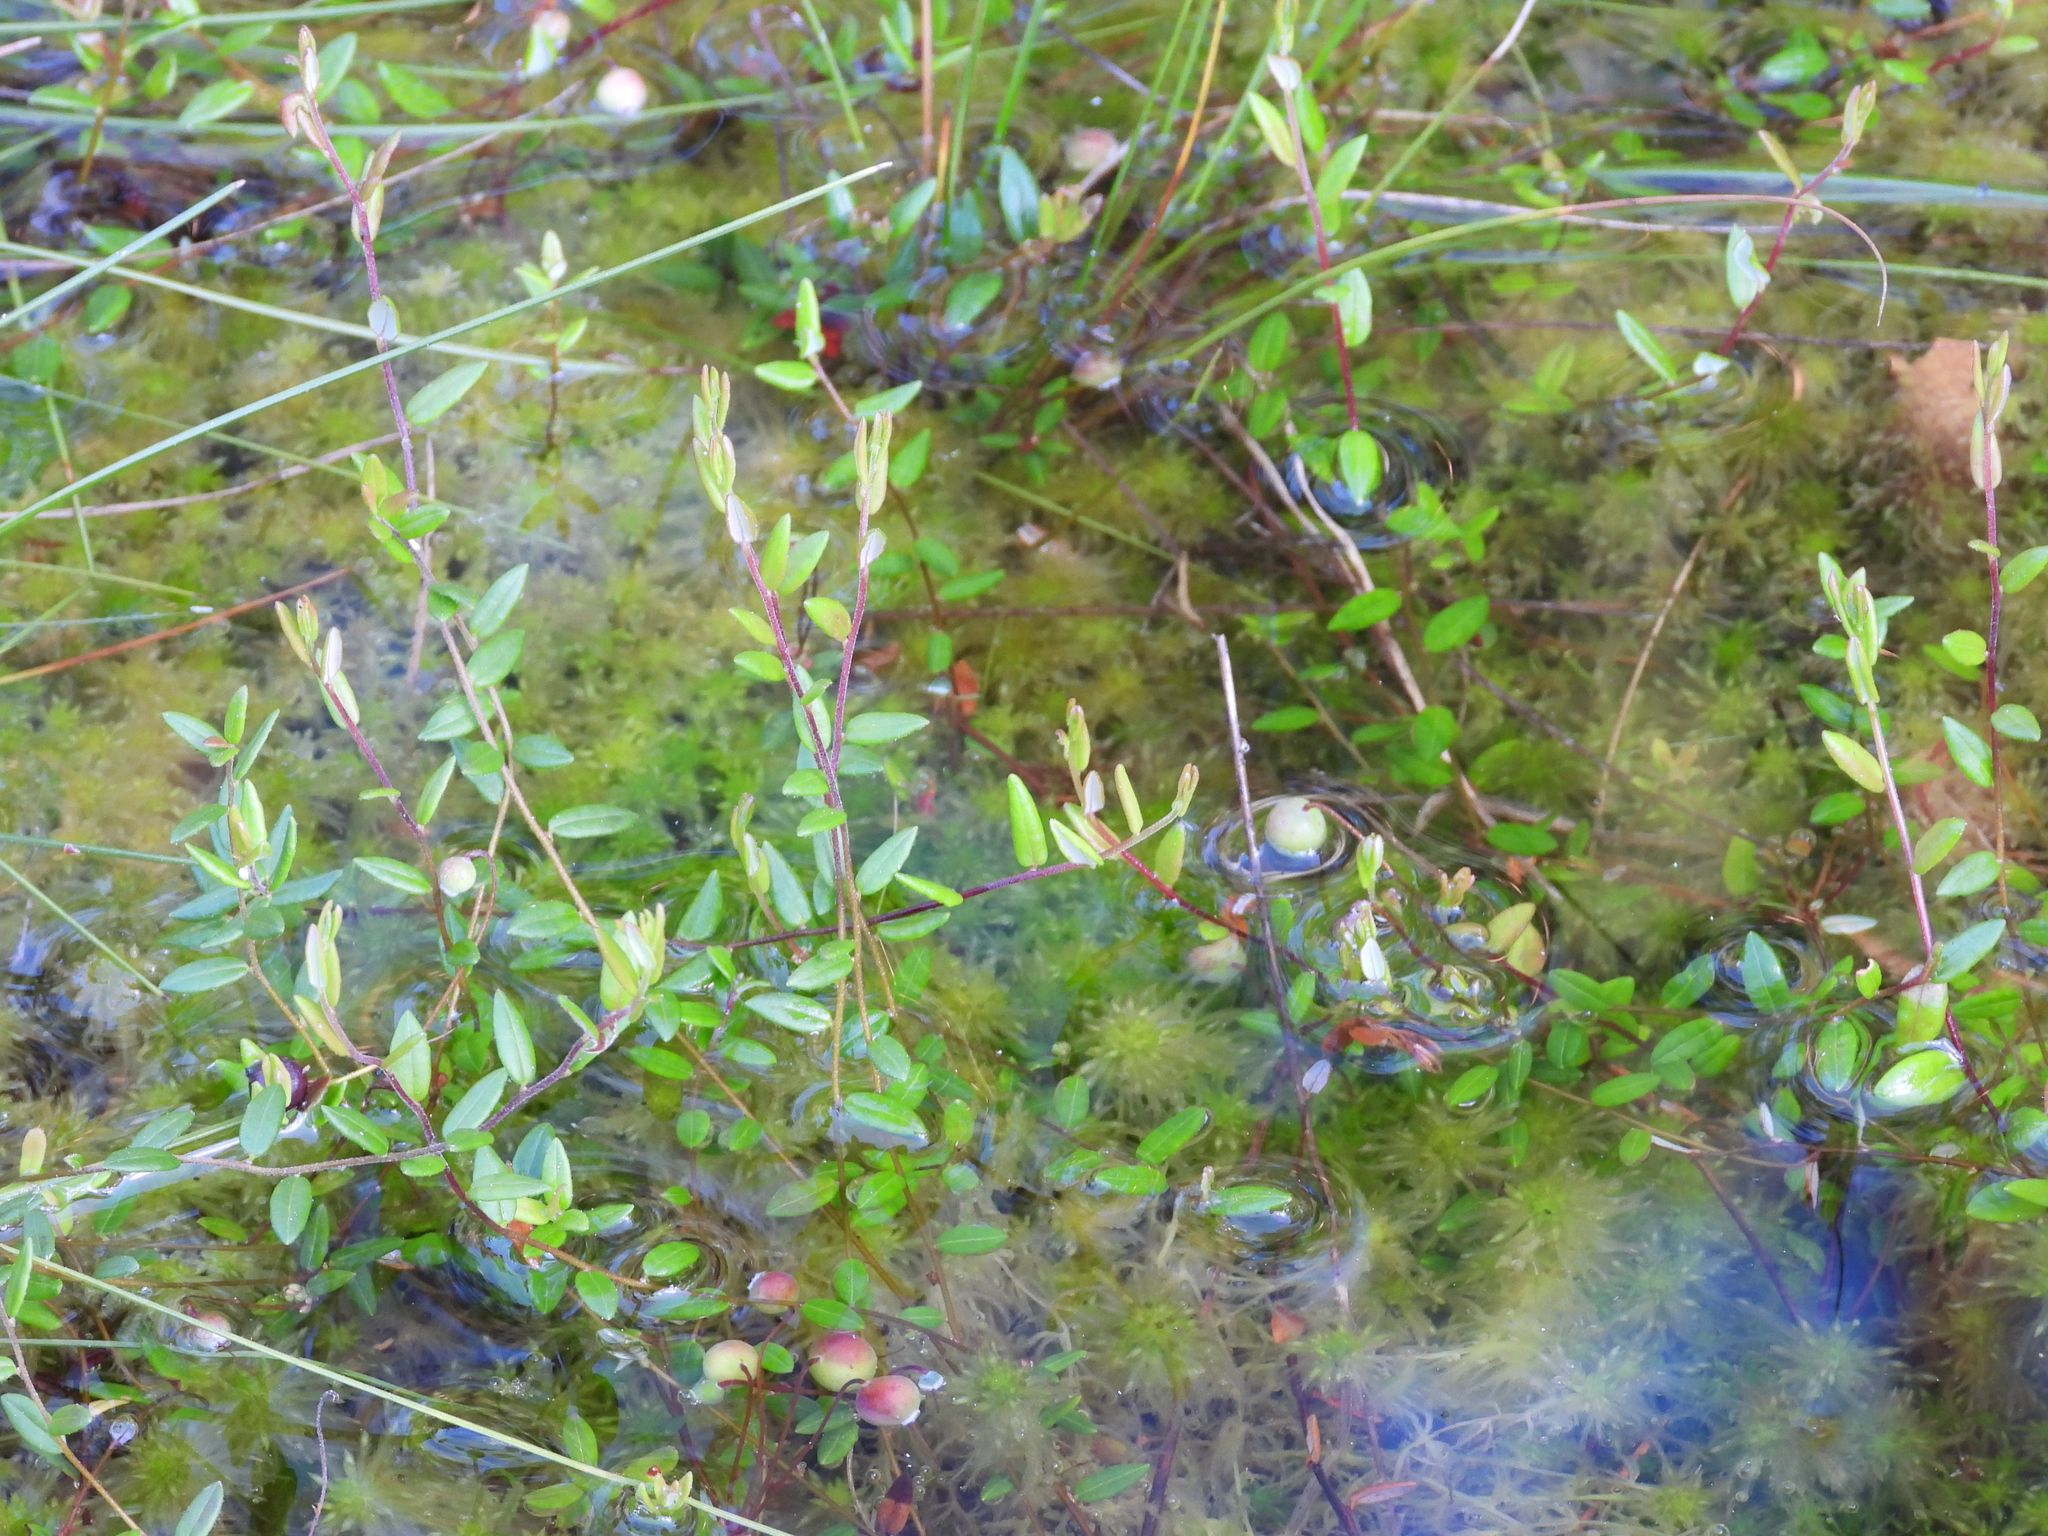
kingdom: Plantae
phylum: Tracheophyta
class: Magnoliopsida
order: Ericales
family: Ericaceae
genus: Vaccinium
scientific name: Vaccinium oxycoccos
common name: Cranberry
